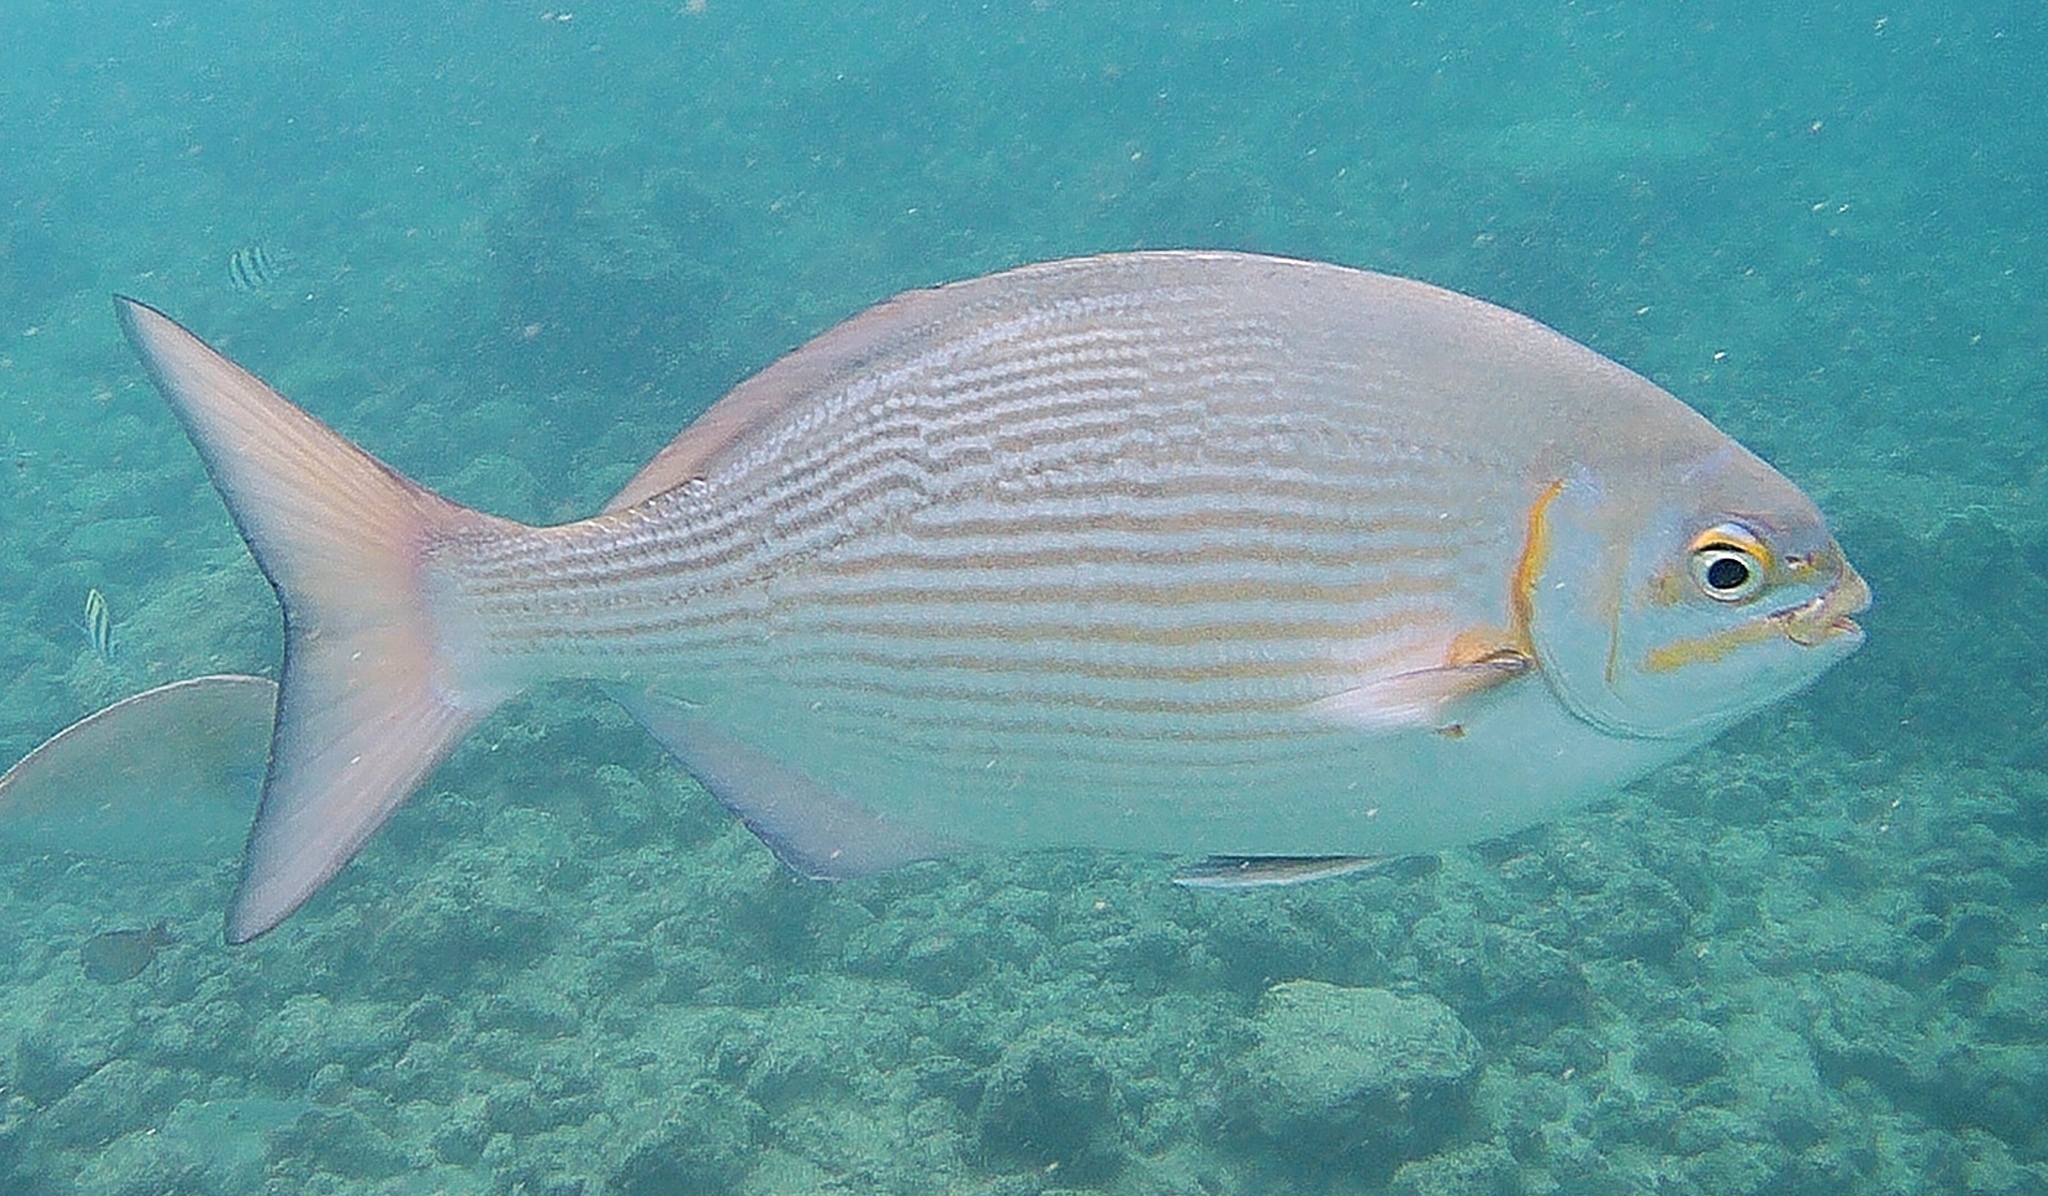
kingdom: Animalia
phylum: Chordata
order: Perciformes
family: Kyphosidae
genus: Kyphosus
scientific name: Kyphosus vaigiensis
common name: Brassy chub
